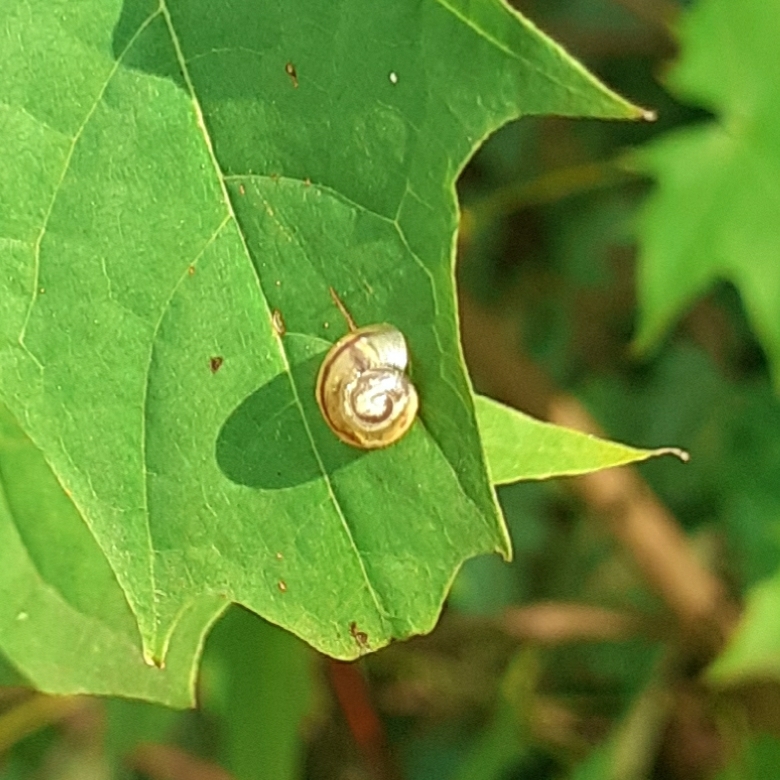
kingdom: Animalia
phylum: Mollusca
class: Gastropoda
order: Stylommatophora
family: Helicidae
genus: Cepaea
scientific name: Cepaea
